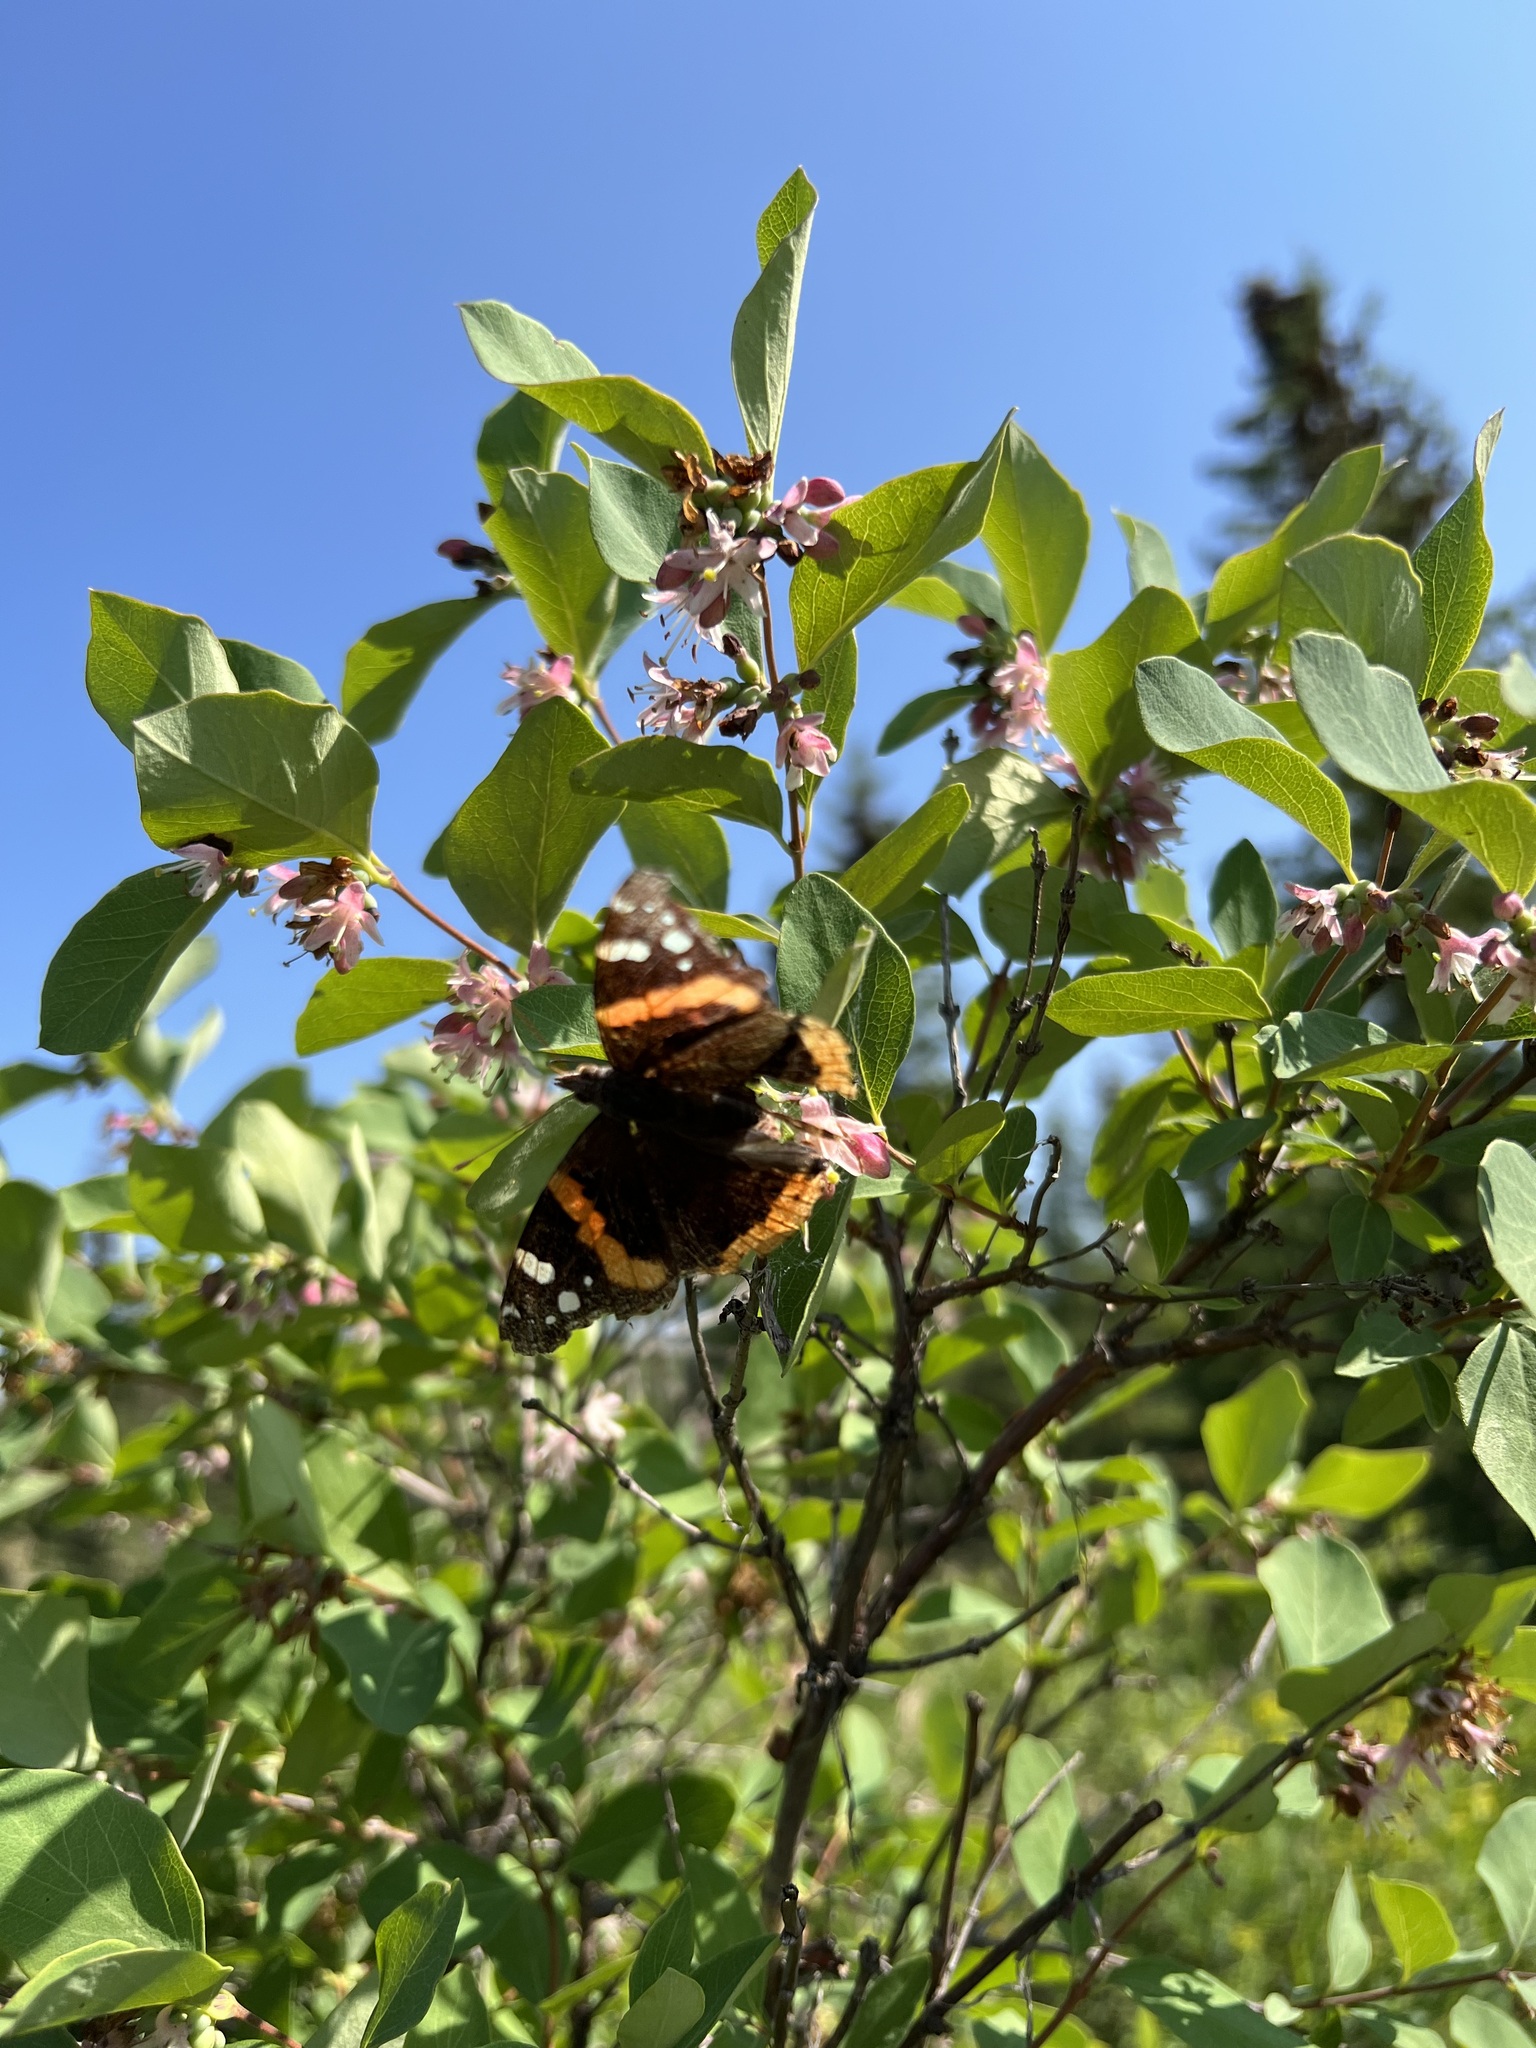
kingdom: Animalia
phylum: Arthropoda
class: Insecta
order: Lepidoptera
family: Nymphalidae
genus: Vanessa
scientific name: Vanessa atalanta
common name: Red admiral
